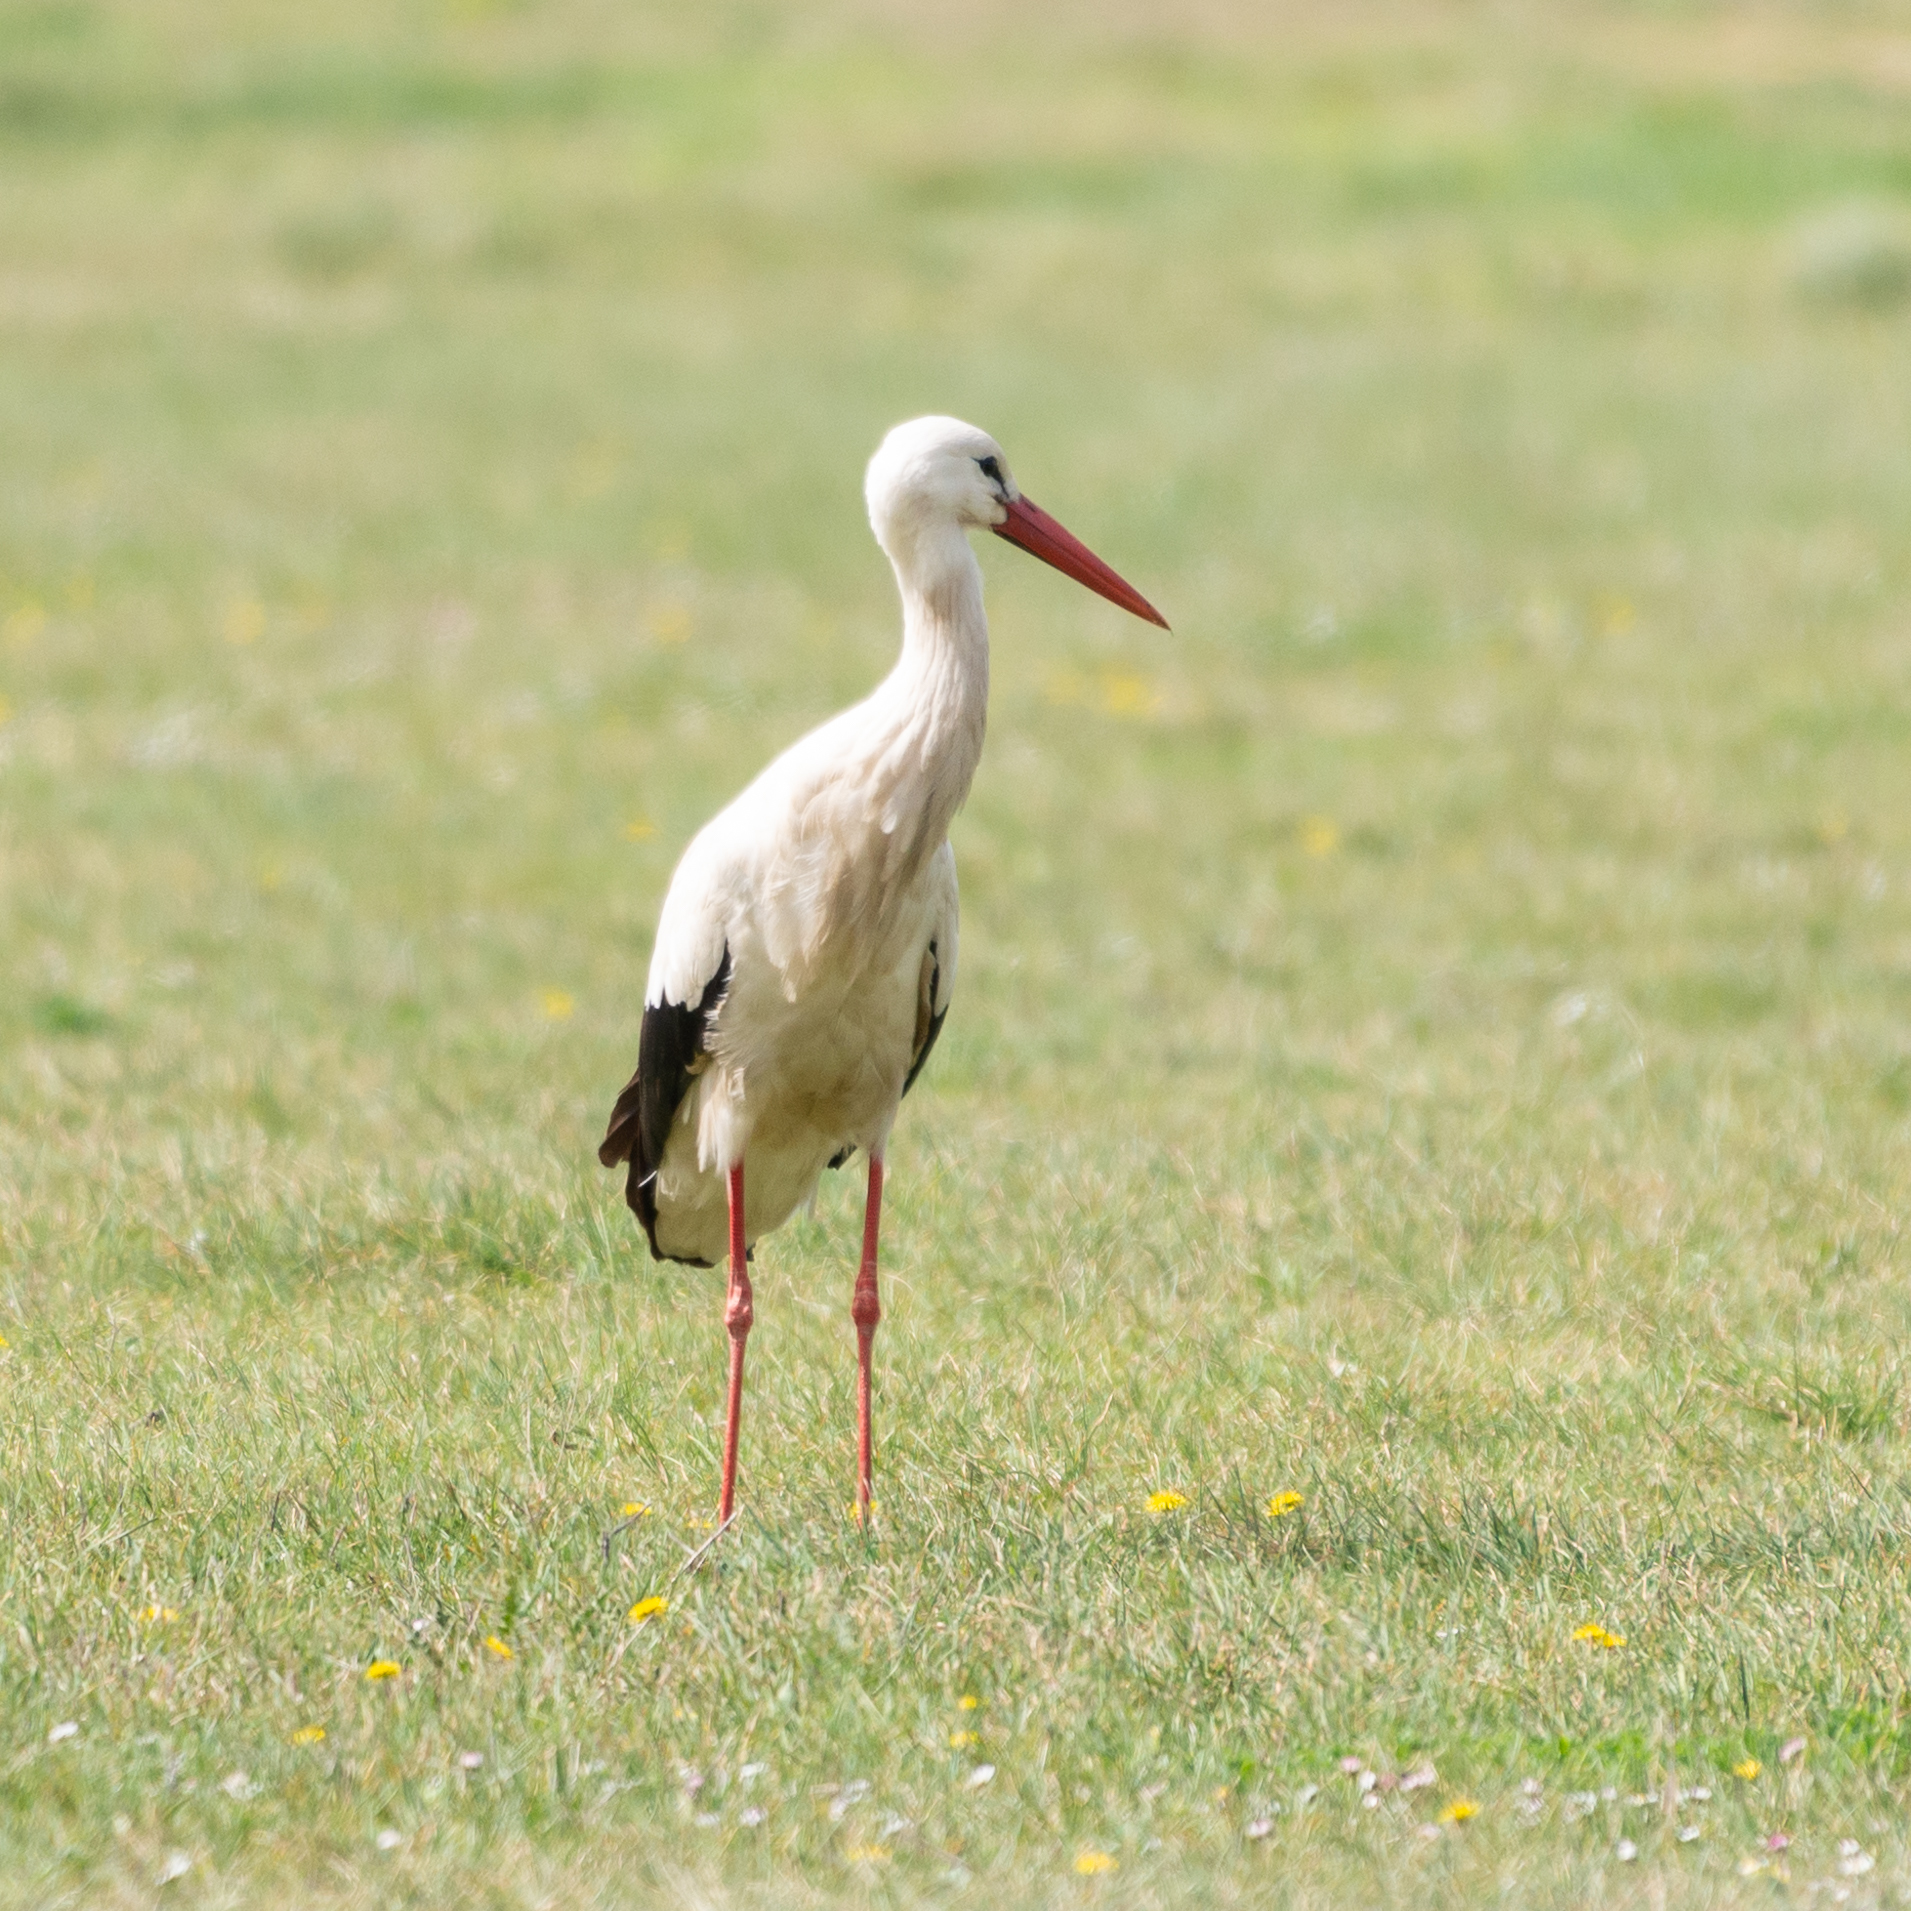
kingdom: Animalia
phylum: Chordata
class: Aves
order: Ciconiiformes
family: Ciconiidae
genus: Ciconia
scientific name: Ciconia ciconia
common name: White stork
